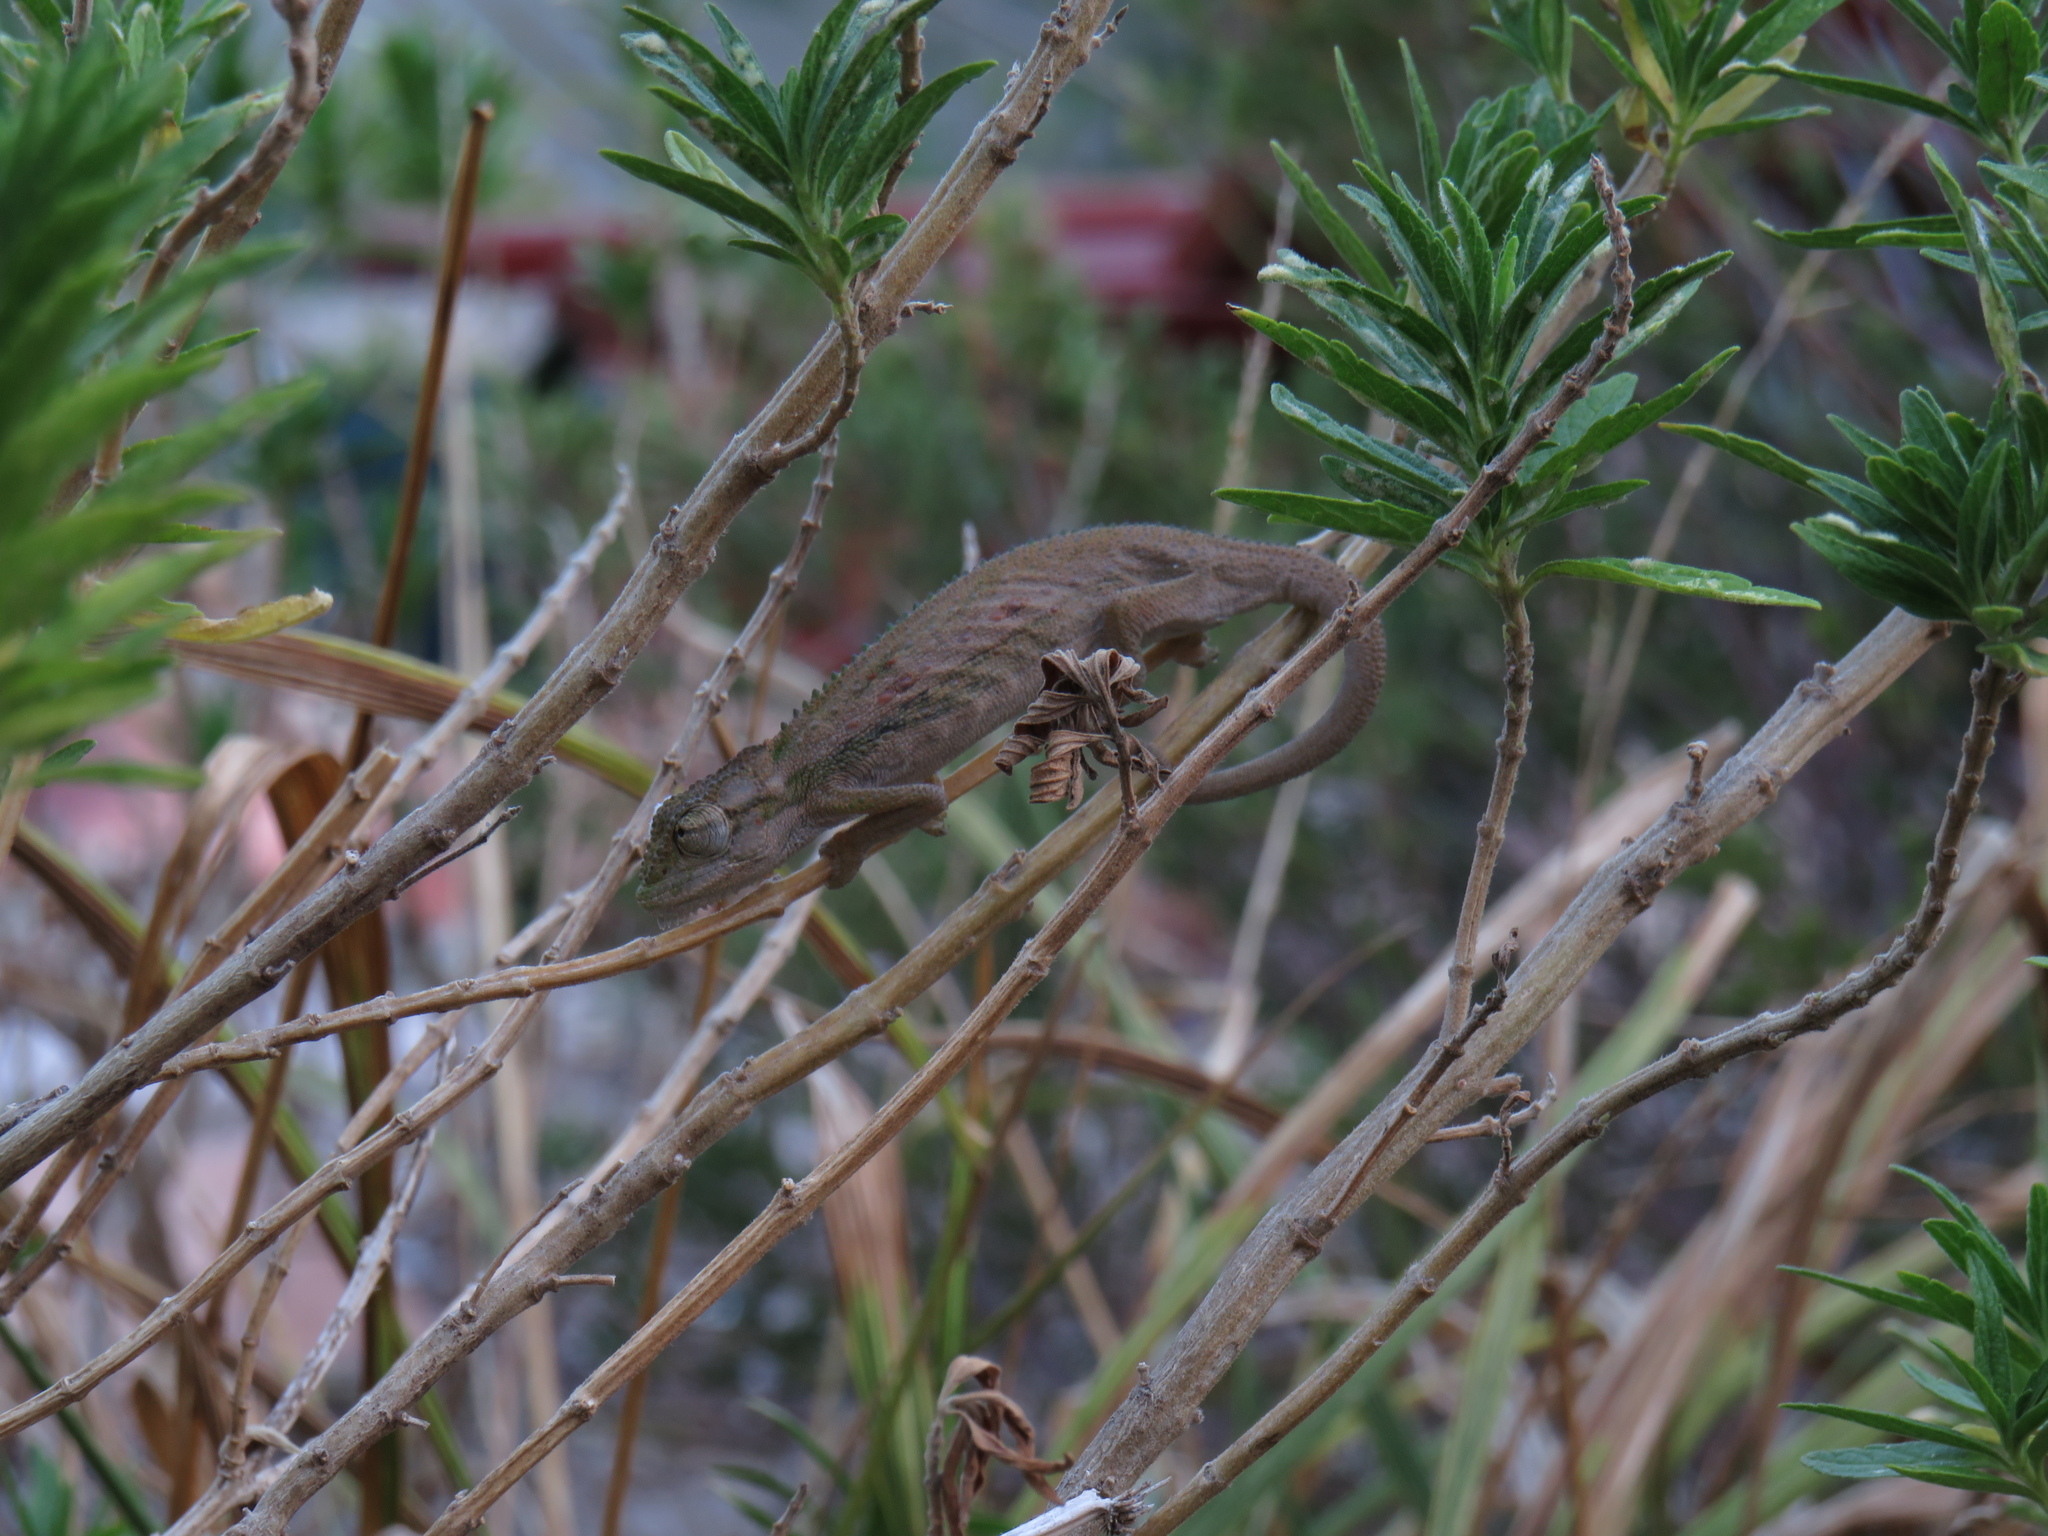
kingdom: Animalia
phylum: Chordata
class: Squamata
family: Chamaeleonidae
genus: Bradypodion
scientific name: Bradypodion pumilum
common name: Cape dwarf chameleon
